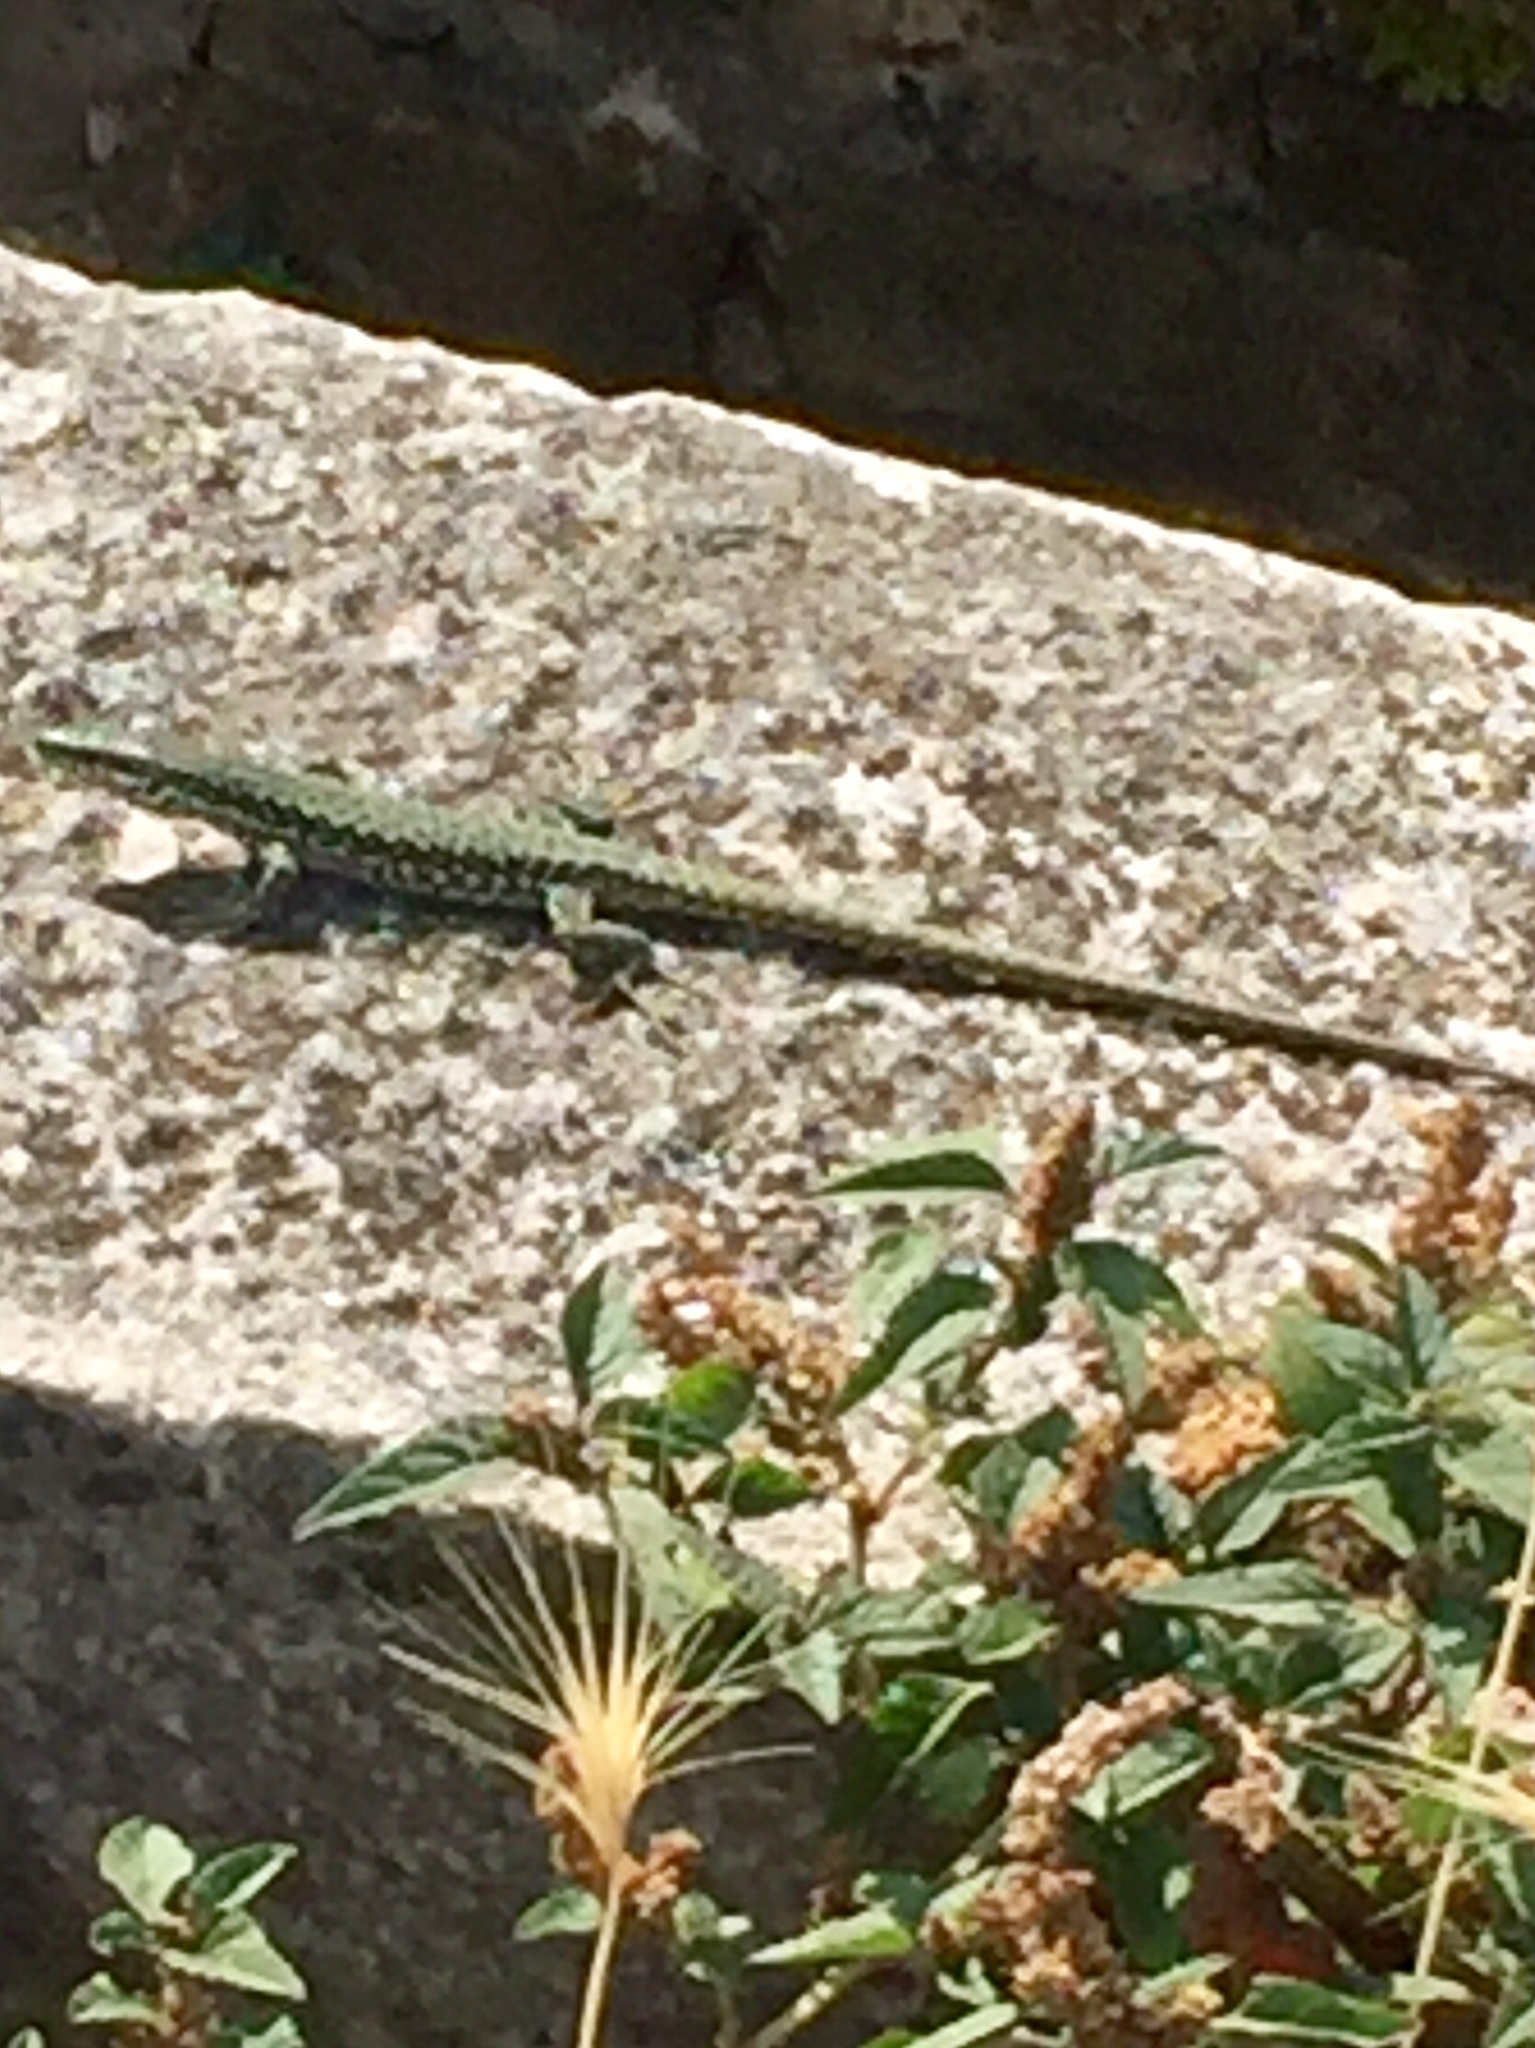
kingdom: Animalia
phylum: Chordata
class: Squamata
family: Lacertidae
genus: Podarcis
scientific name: Podarcis muralis
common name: Common wall lizard
